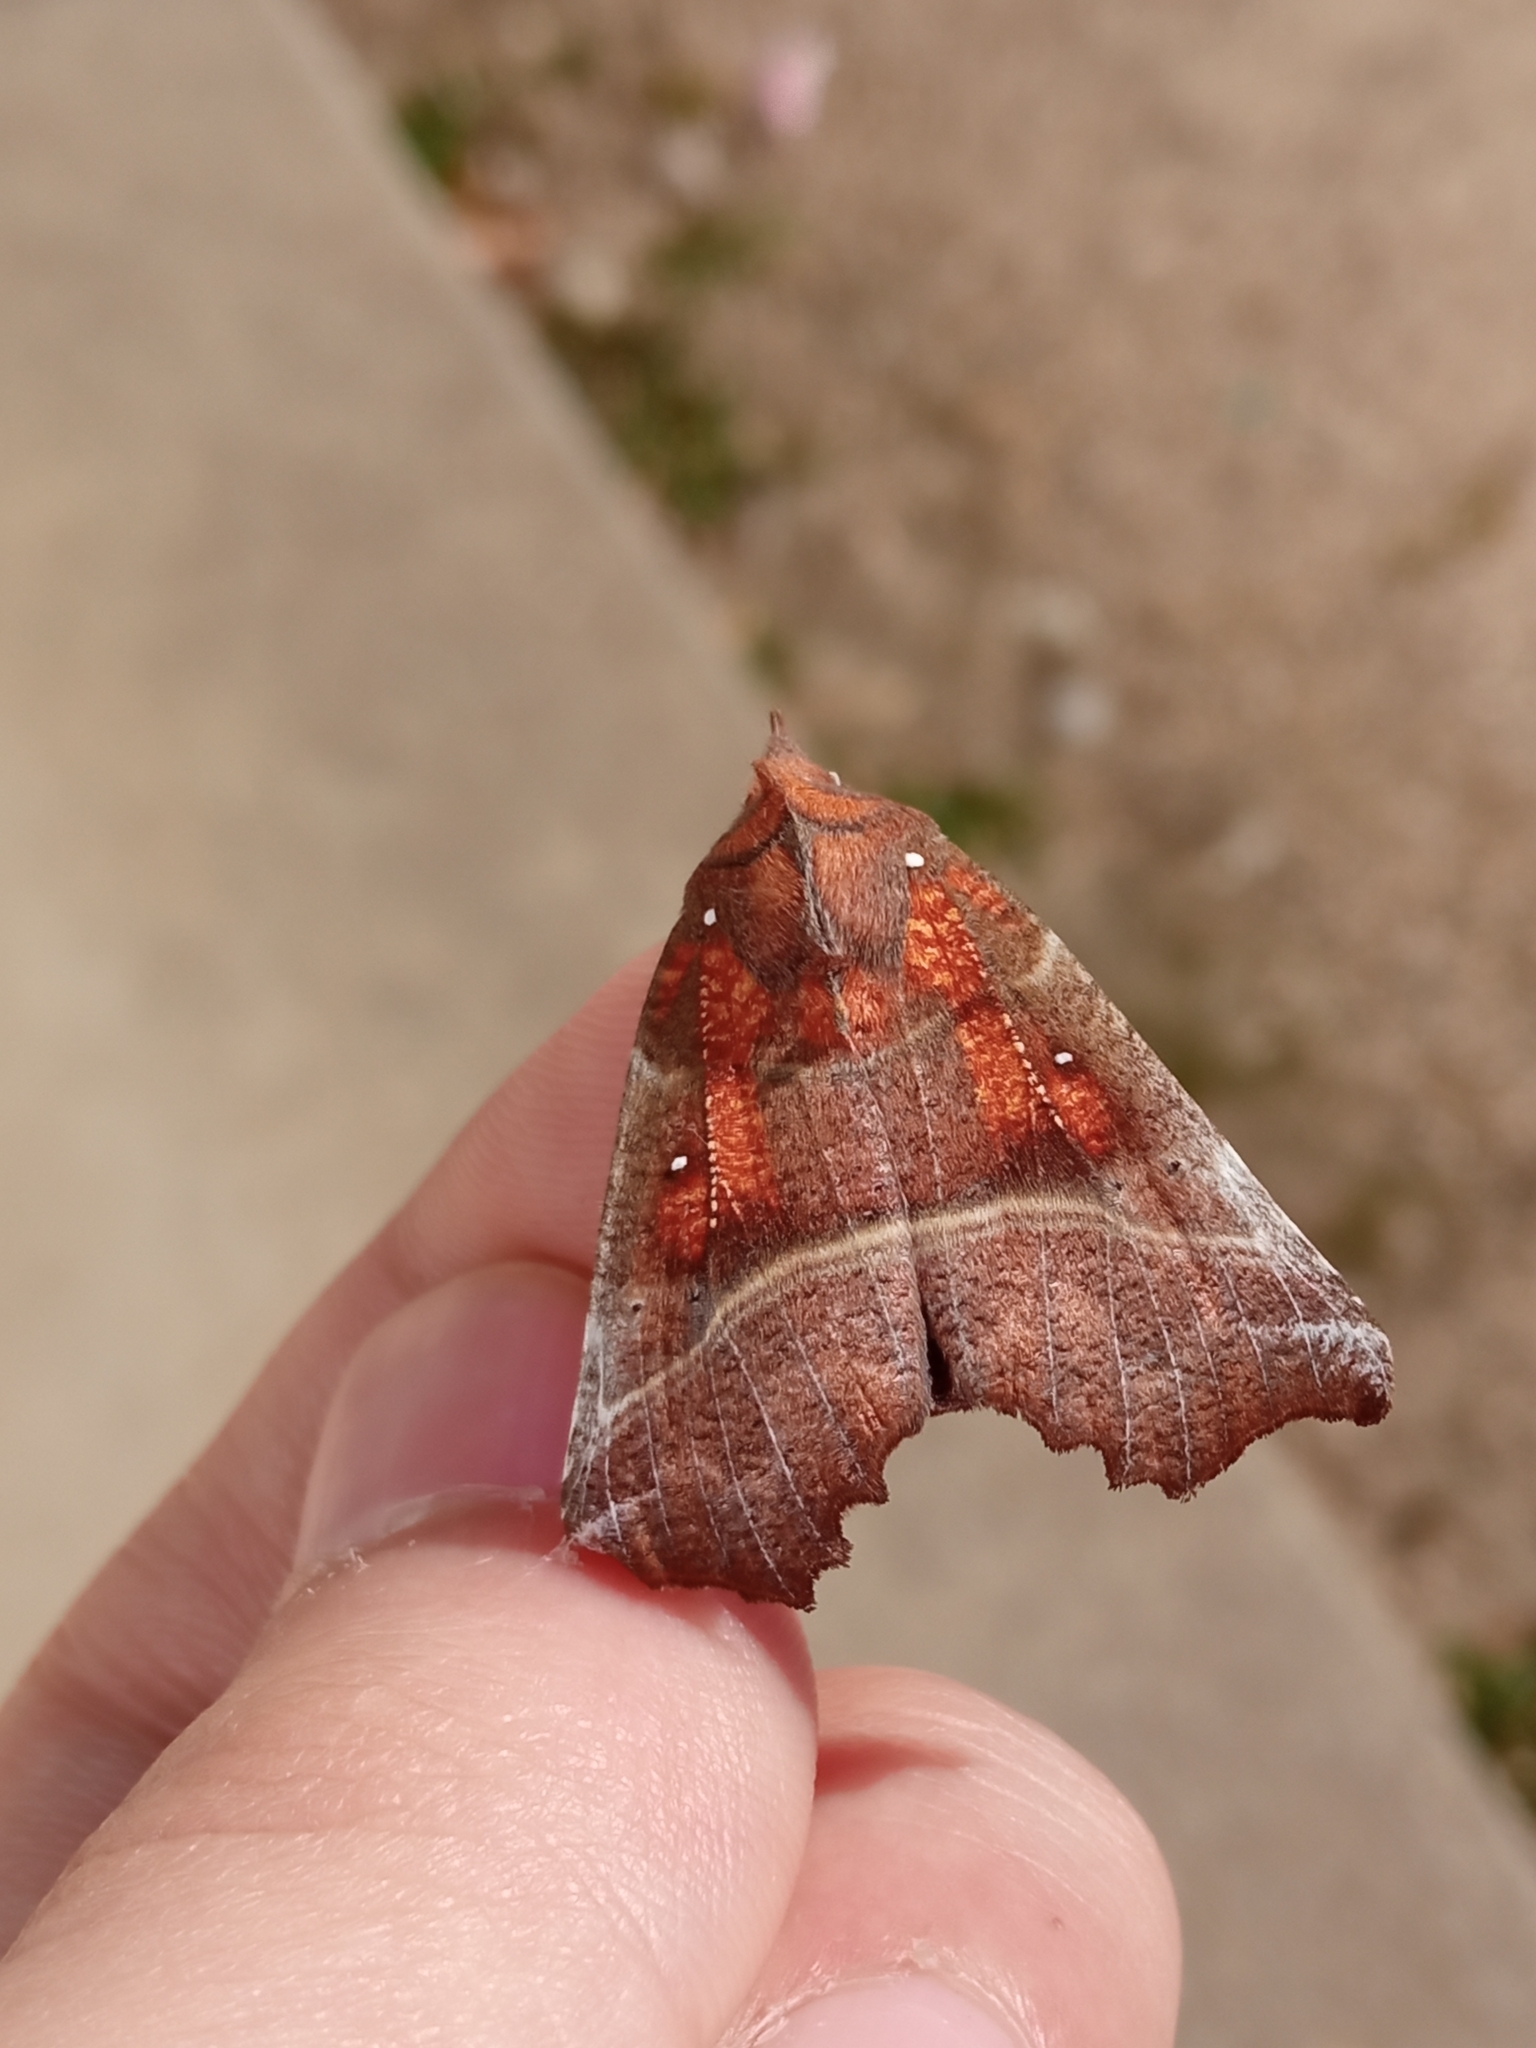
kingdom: Animalia
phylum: Arthropoda
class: Insecta
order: Lepidoptera
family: Erebidae
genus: Scoliopteryx
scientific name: Scoliopteryx libatrix
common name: Herald
